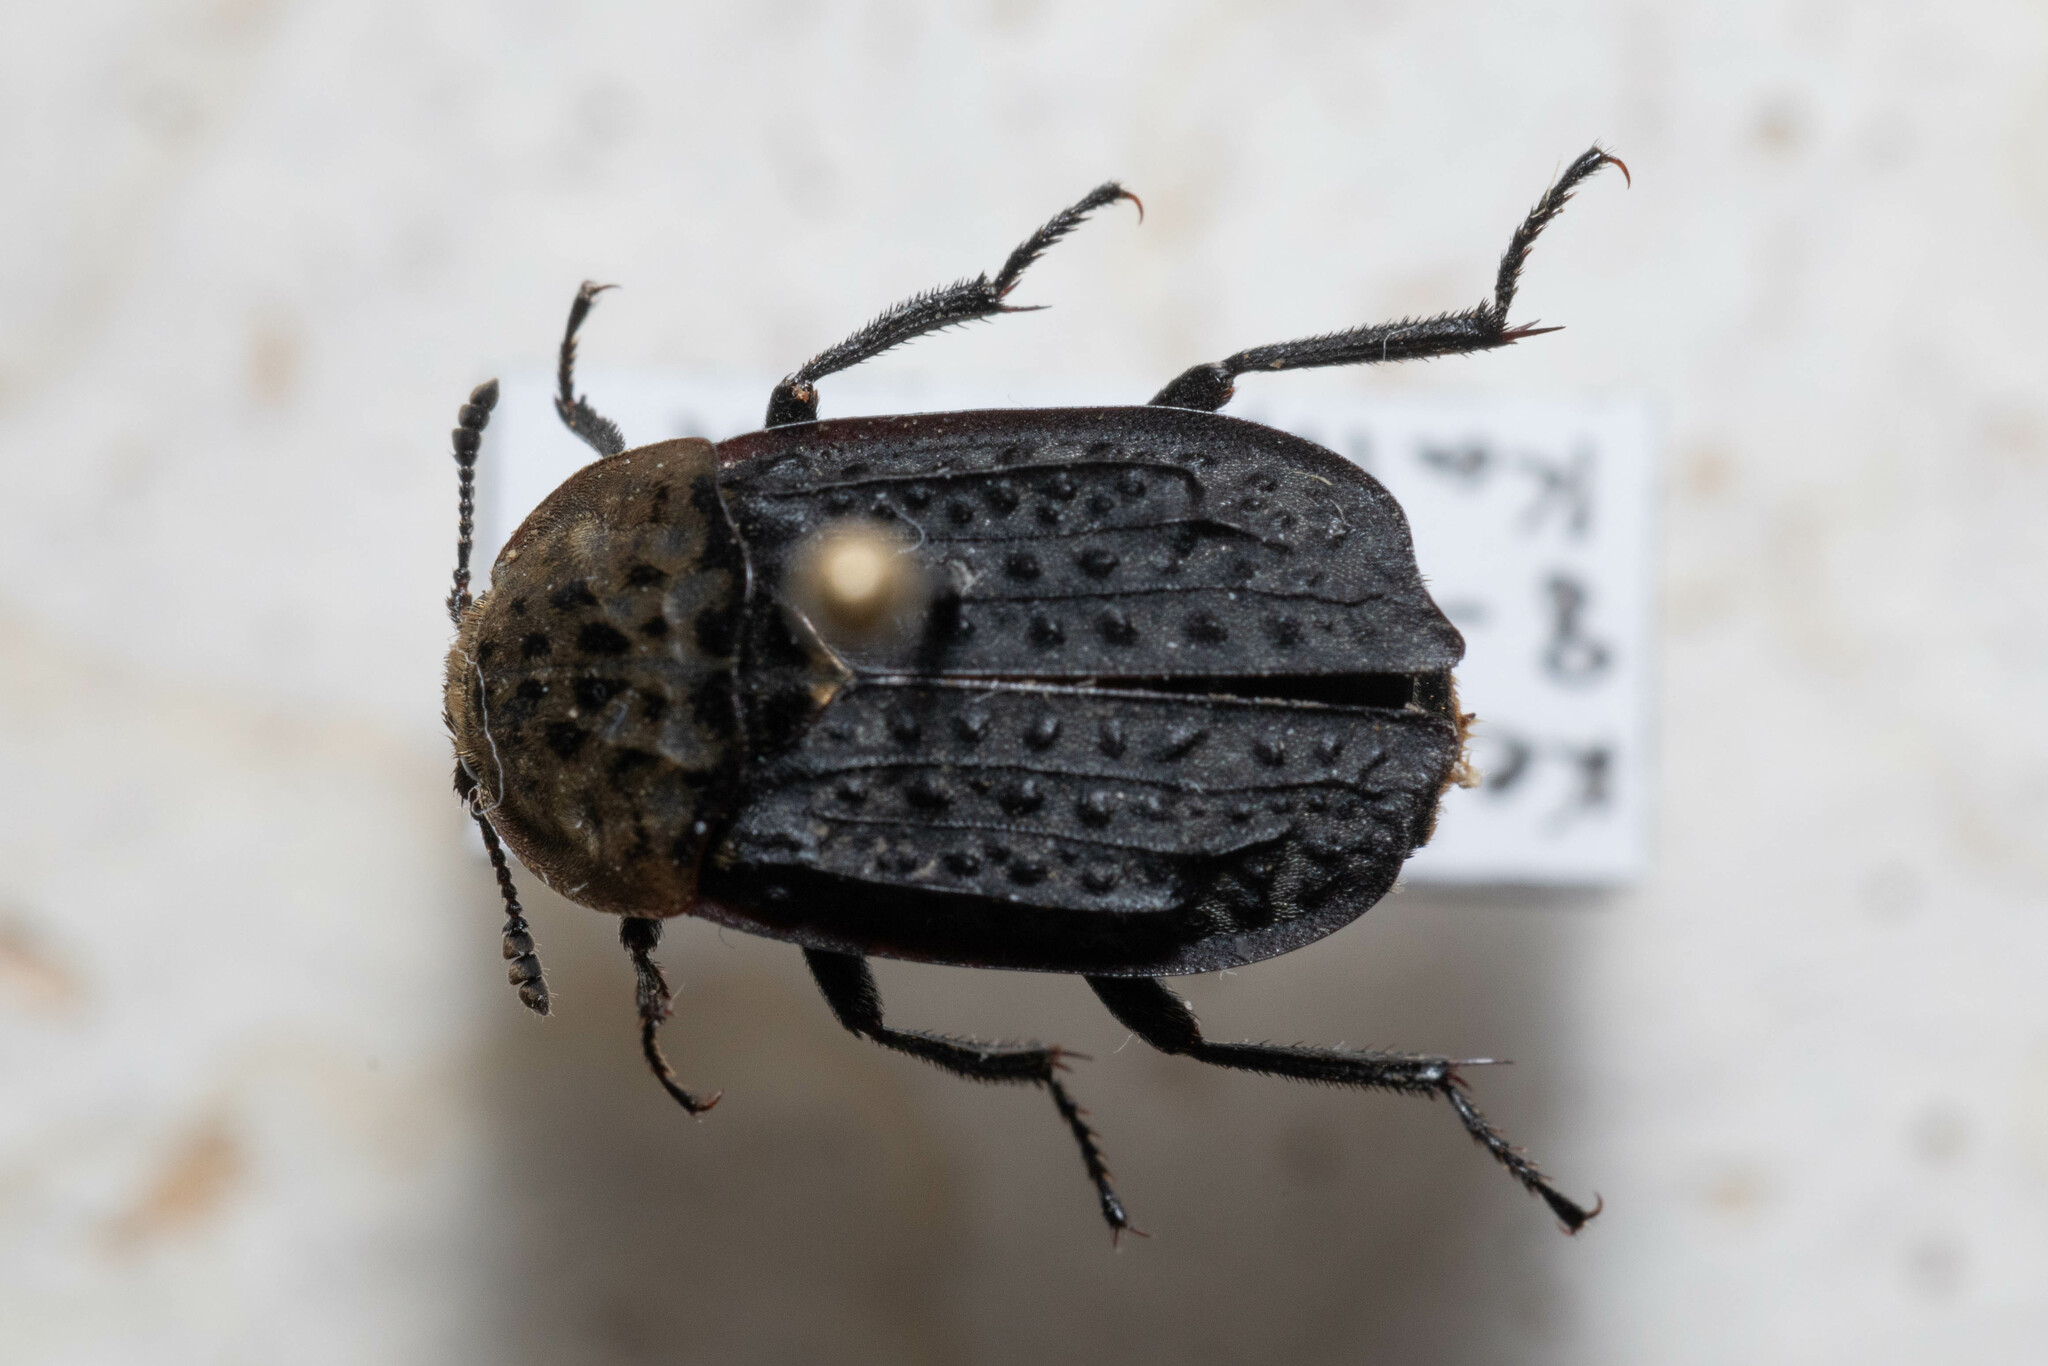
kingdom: Animalia
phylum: Arthropoda
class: Insecta
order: Coleoptera
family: Staphylinidae
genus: Thanatophilus
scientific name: Thanatophilus lapponicus
